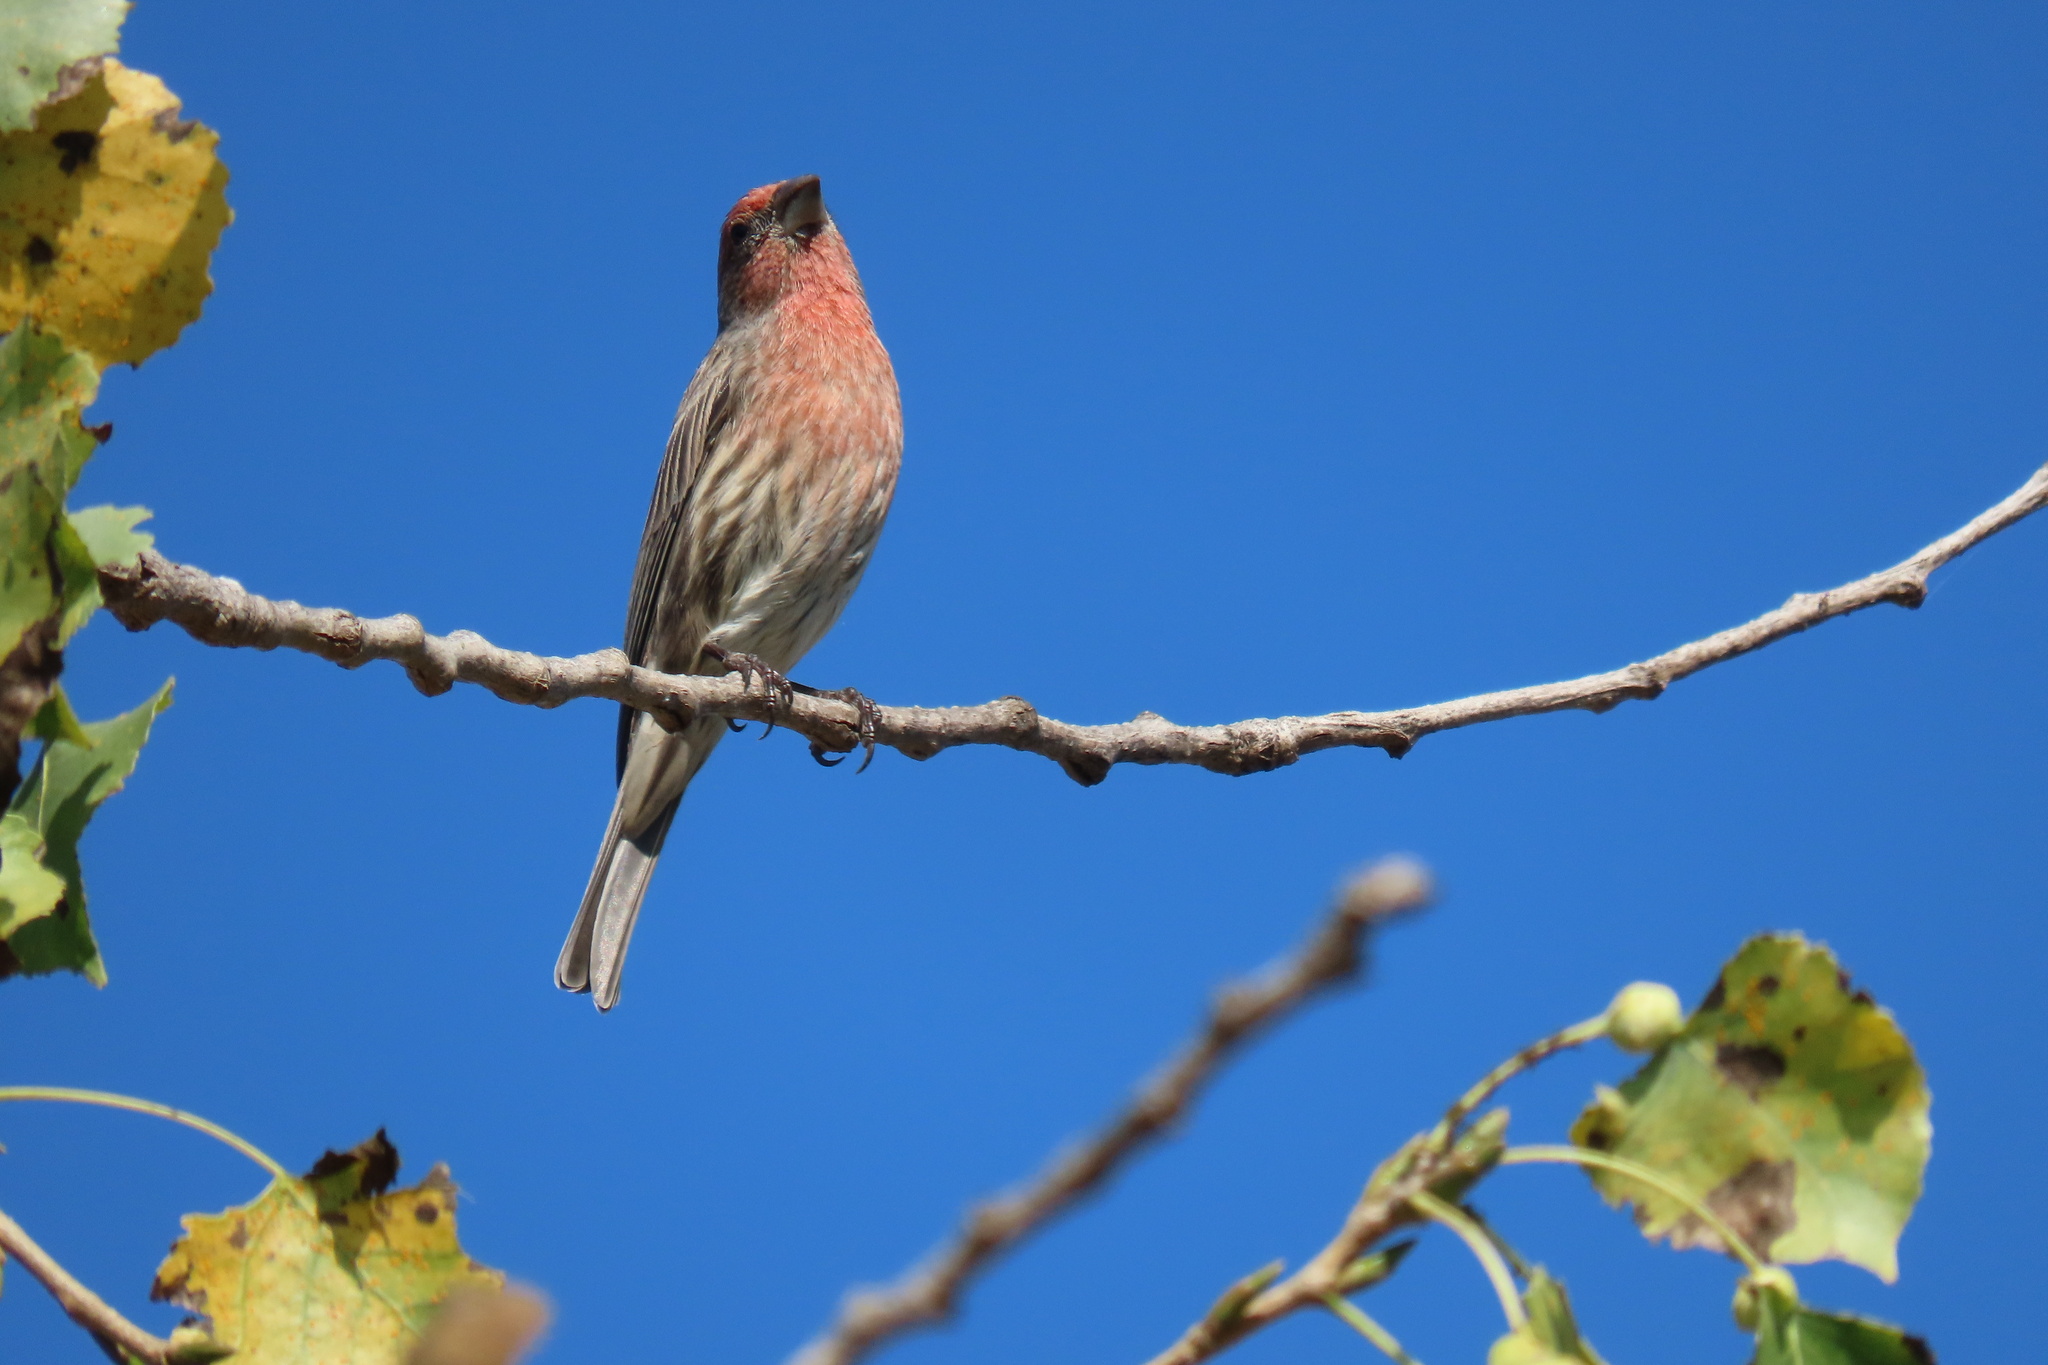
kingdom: Animalia
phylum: Chordata
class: Aves
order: Passeriformes
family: Fringillidae
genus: Haemorhous
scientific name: Haemorhous mexicanus
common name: House finch
